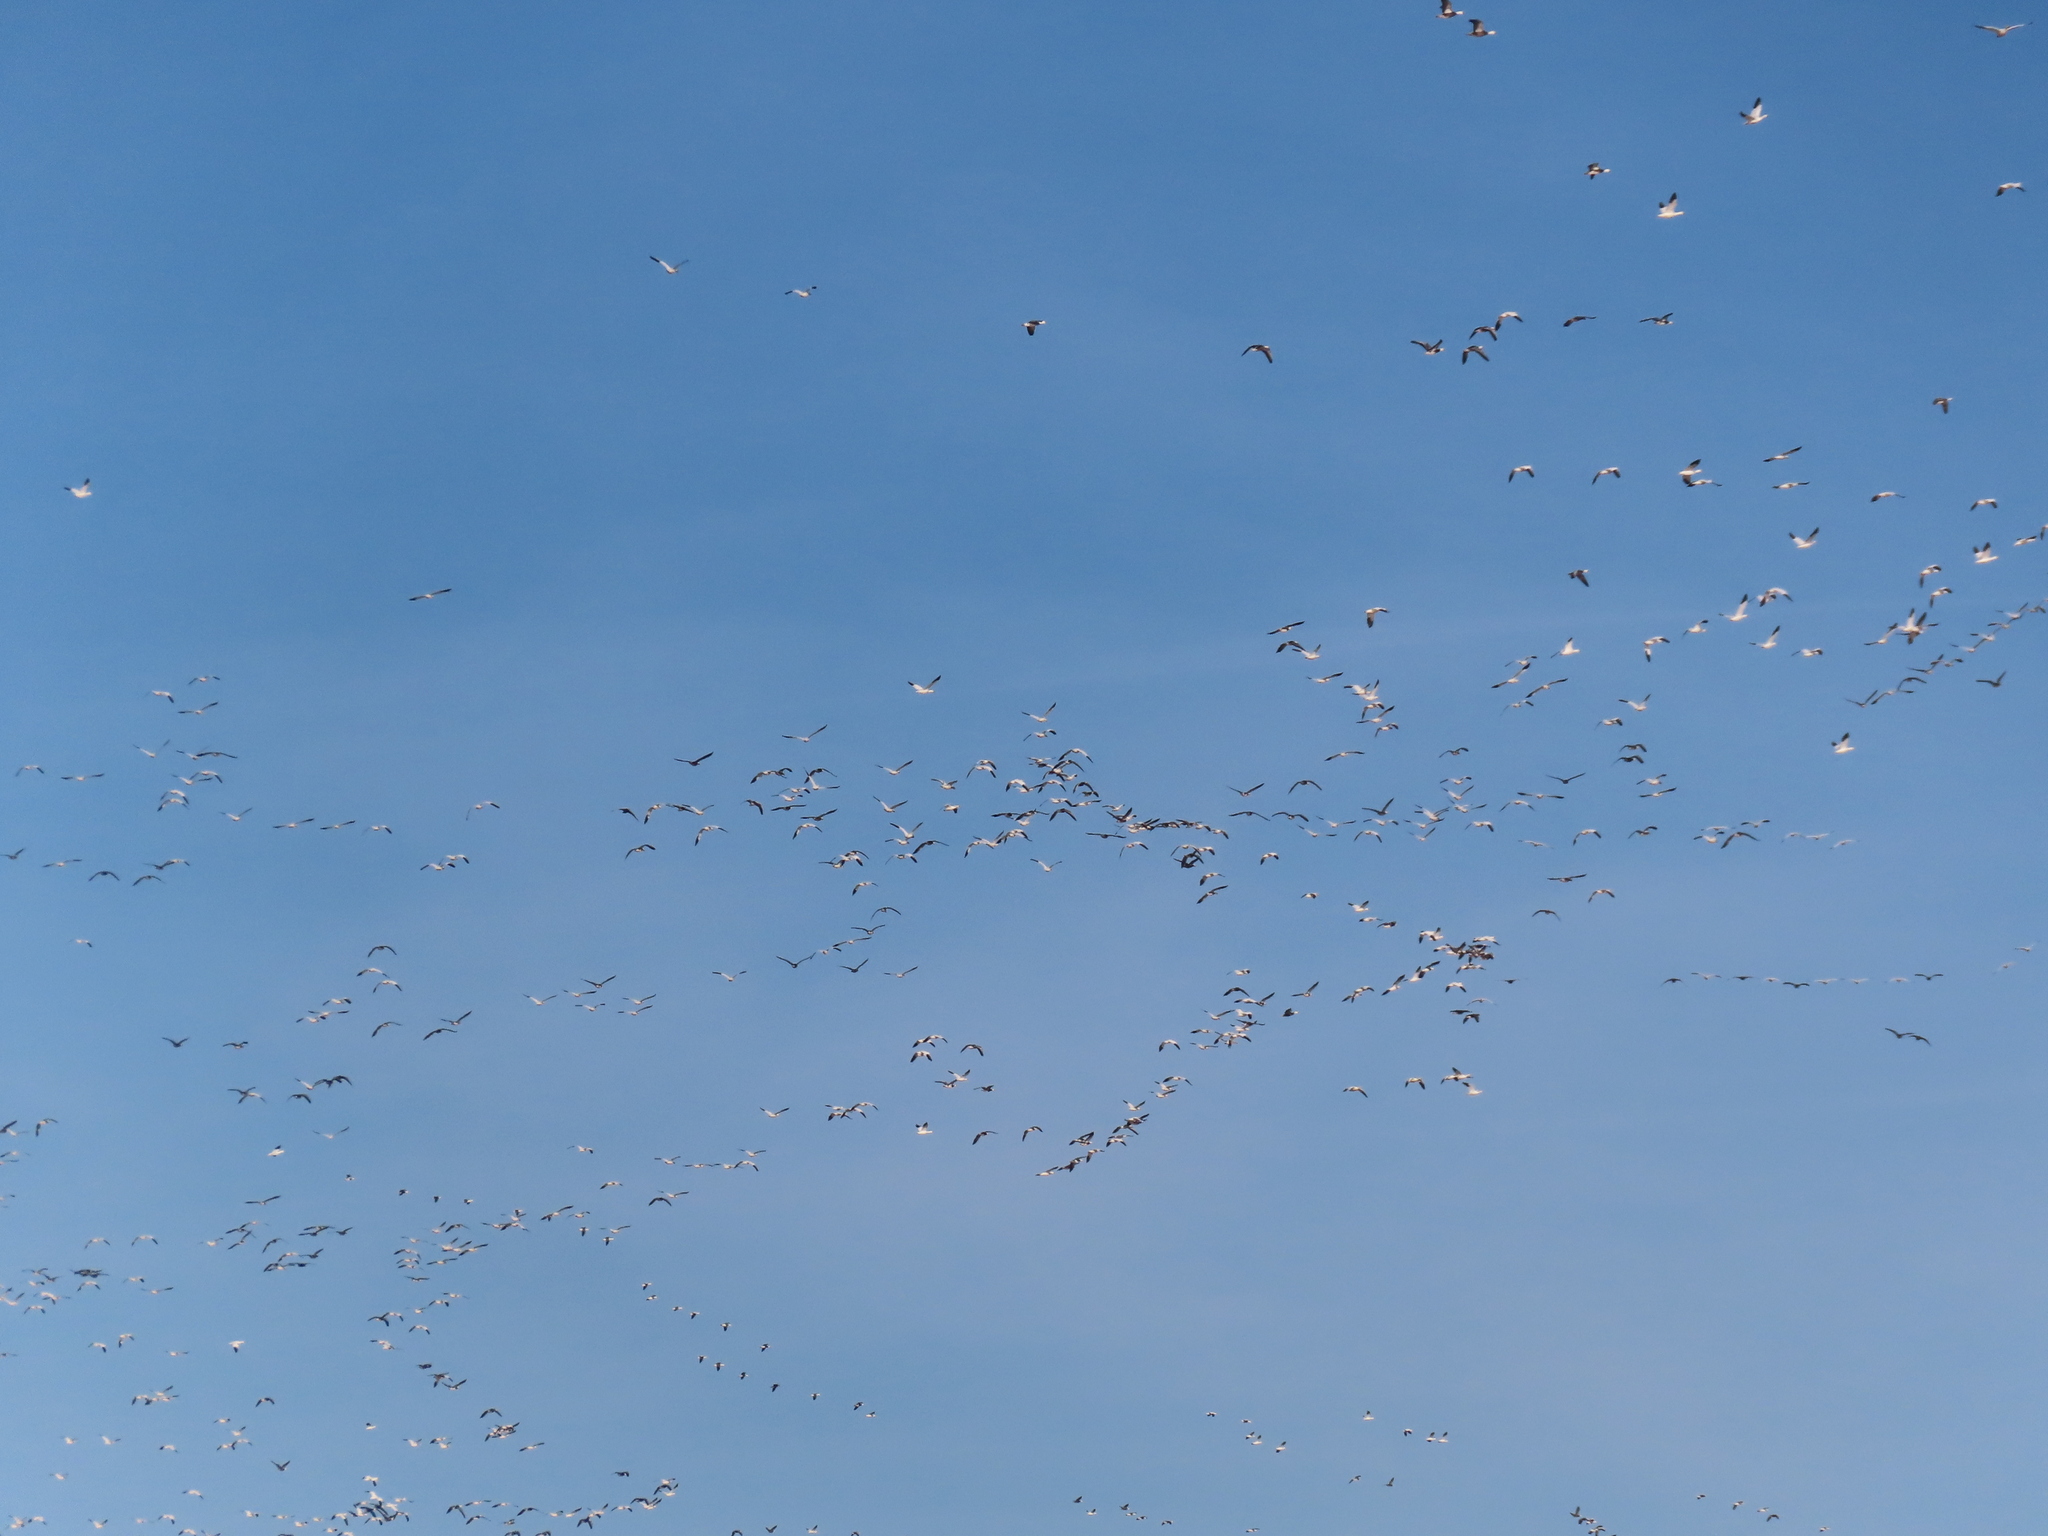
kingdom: Animalia
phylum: Chordata
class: Aves
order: Anseriformes
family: Anatidae
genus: Anser
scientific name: Anser caerulescens
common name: Snow goose
